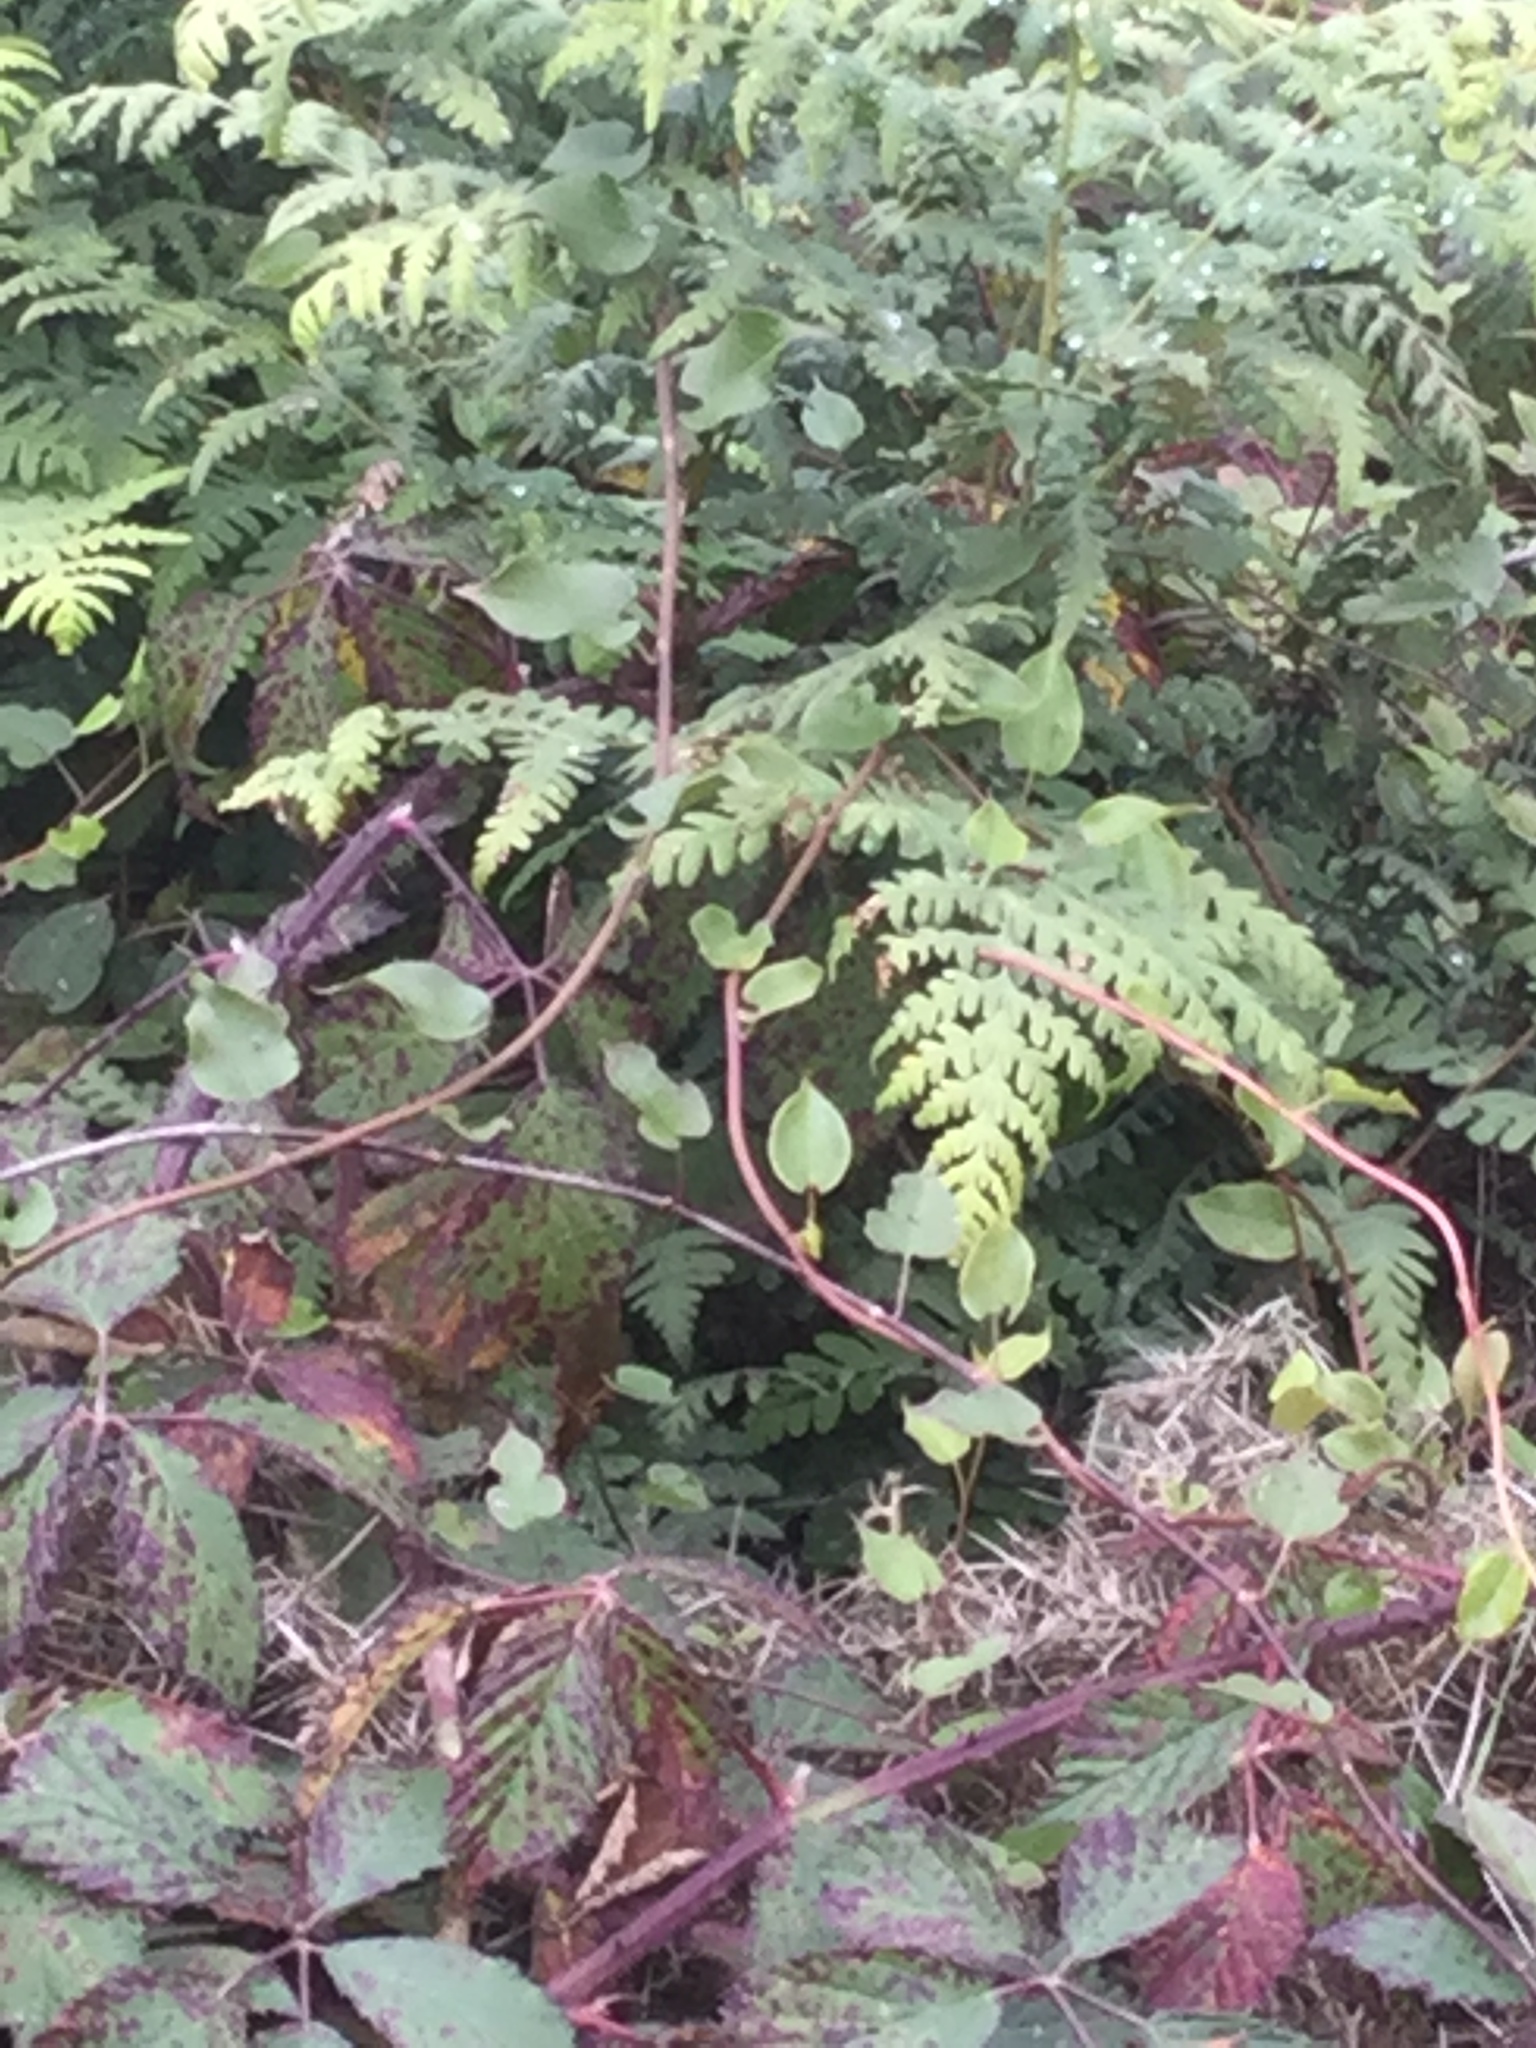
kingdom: Plantae
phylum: Tracheophyta
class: Magnoliopsida
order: Caryophyllales
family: Polygonaceae
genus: Muehlenbeckia
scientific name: Muehlenbeckia australis
